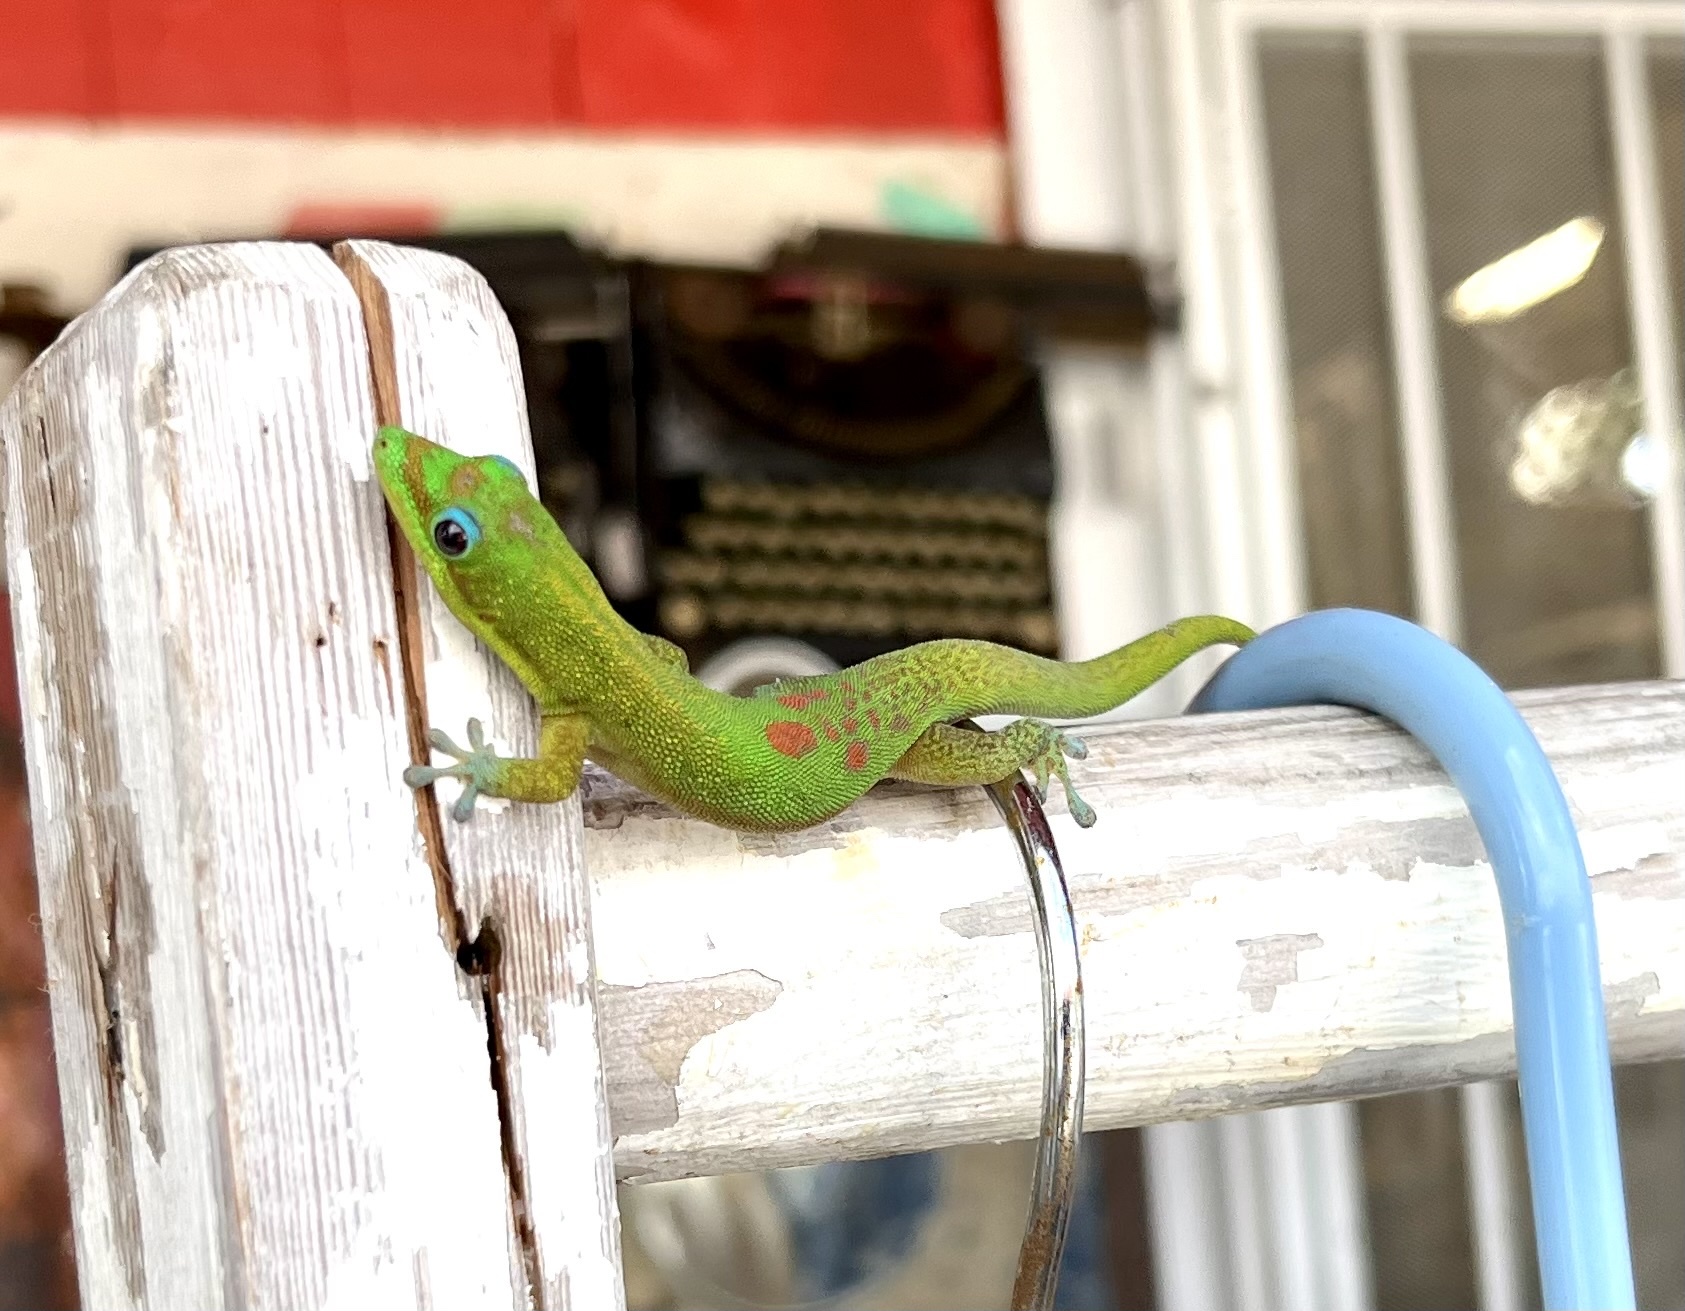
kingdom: Animalia
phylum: Chordata
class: Squamata
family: Gekkonidae
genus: Phelsuma
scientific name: Phelsuma laticauda
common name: Gold dust day gecko
